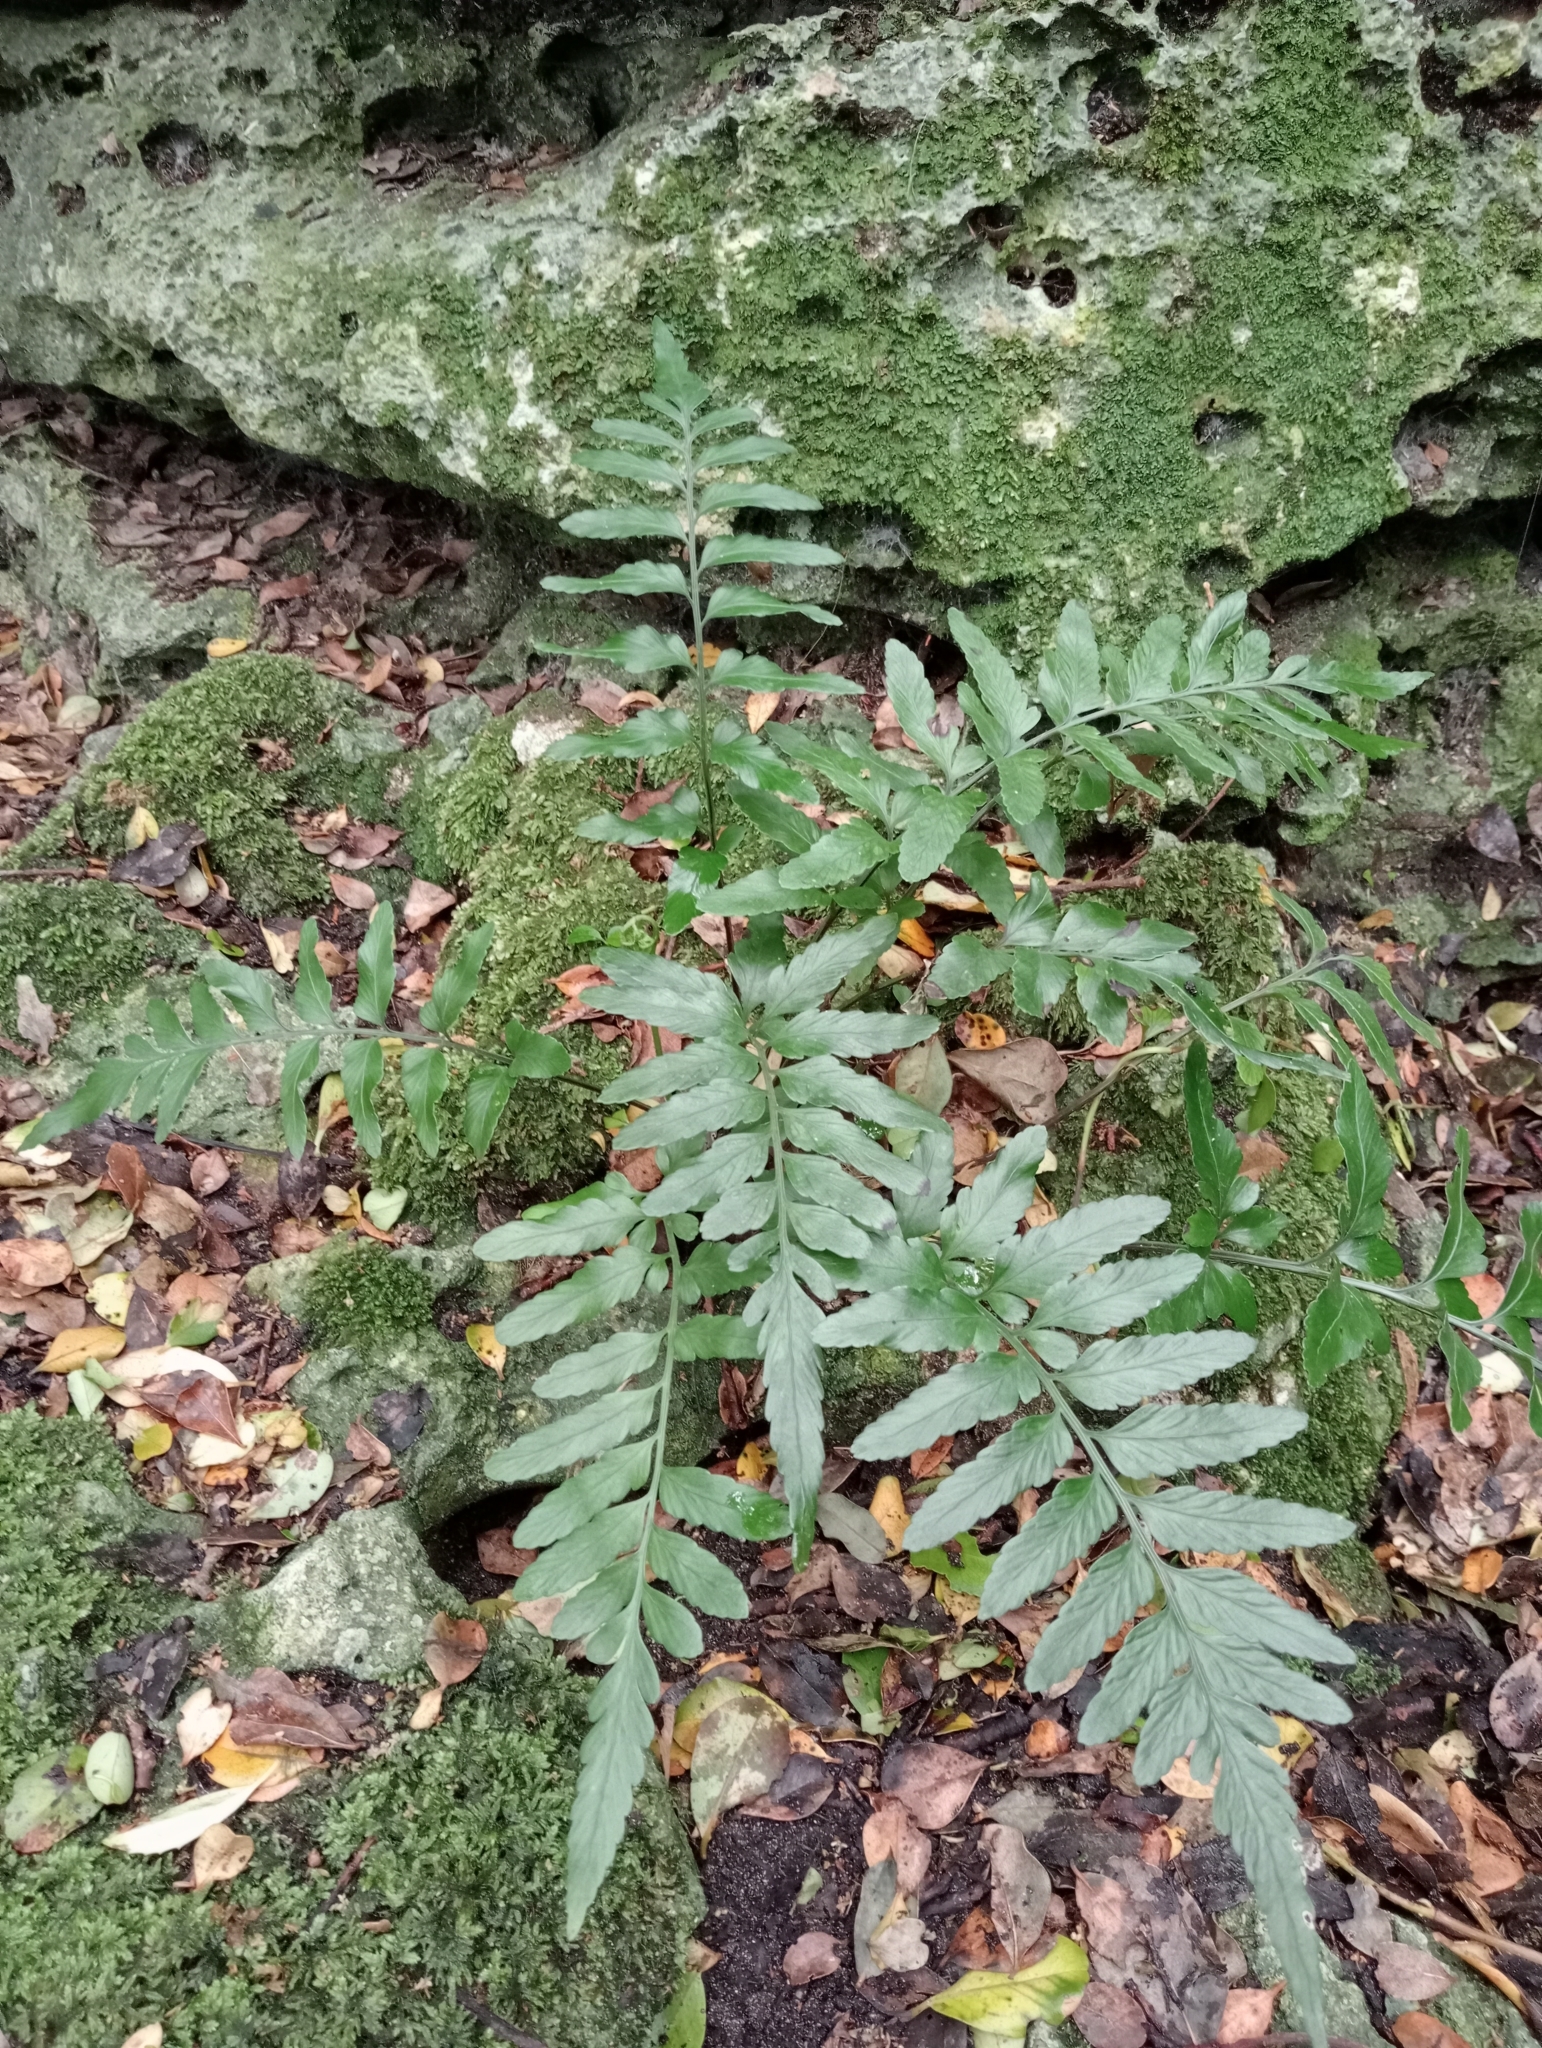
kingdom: Plantae
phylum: Tracheophyta
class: Polypodiopsida
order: Polypodiales
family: Aspleniaceae
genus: Asplenium
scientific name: Asplenium lyallii
